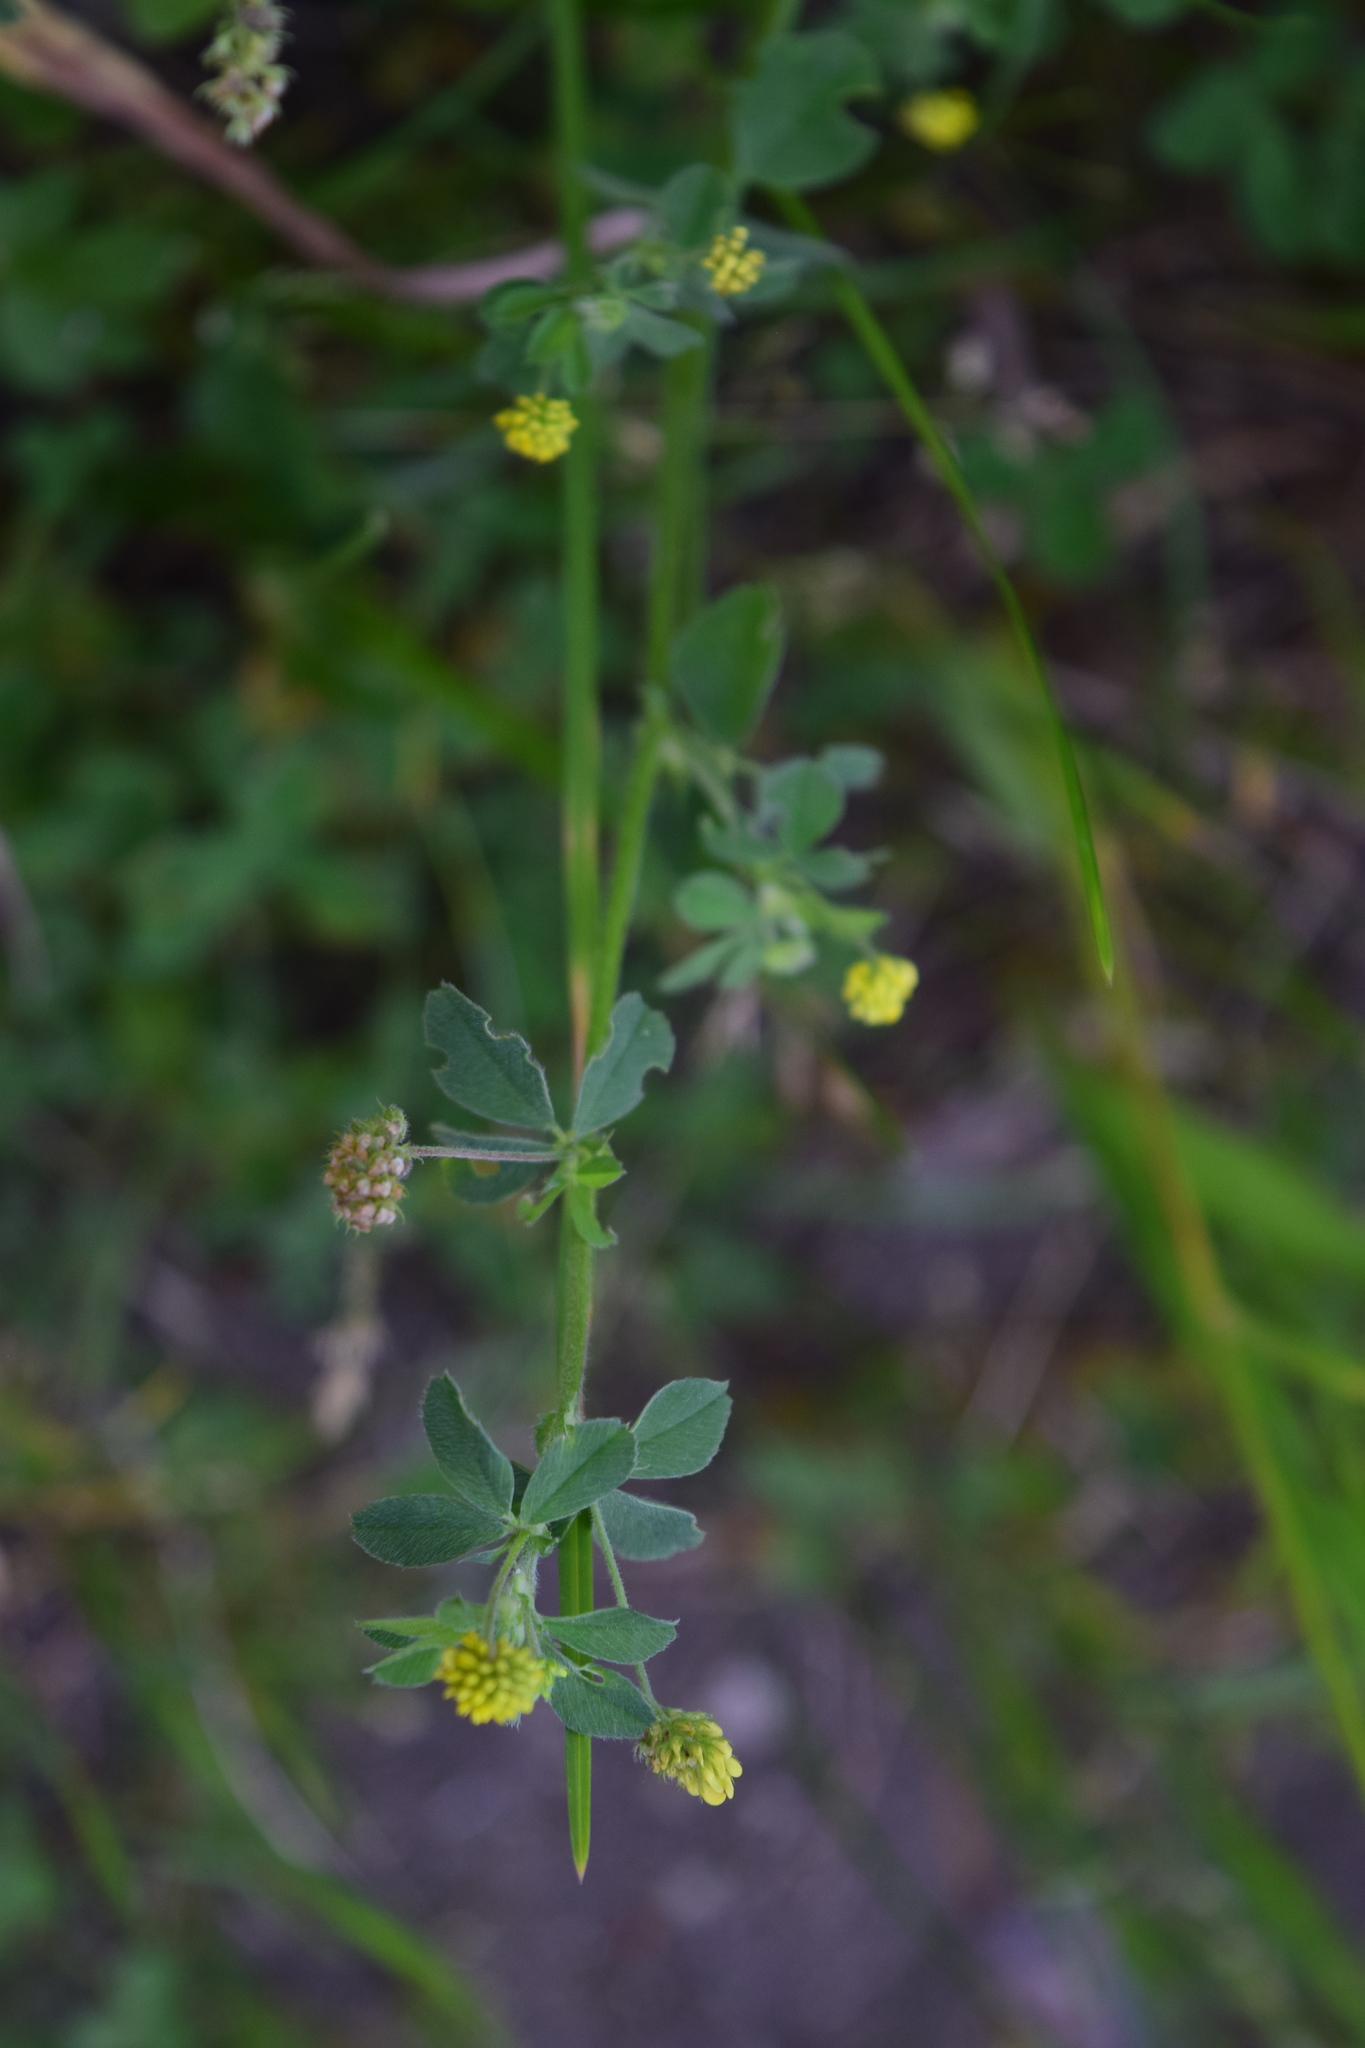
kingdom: Plantae
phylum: Tracheophyta
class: Magnoliopsida
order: Fabales
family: Fabaceae
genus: Medicago
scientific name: Medicago lupulina
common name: Black medick
